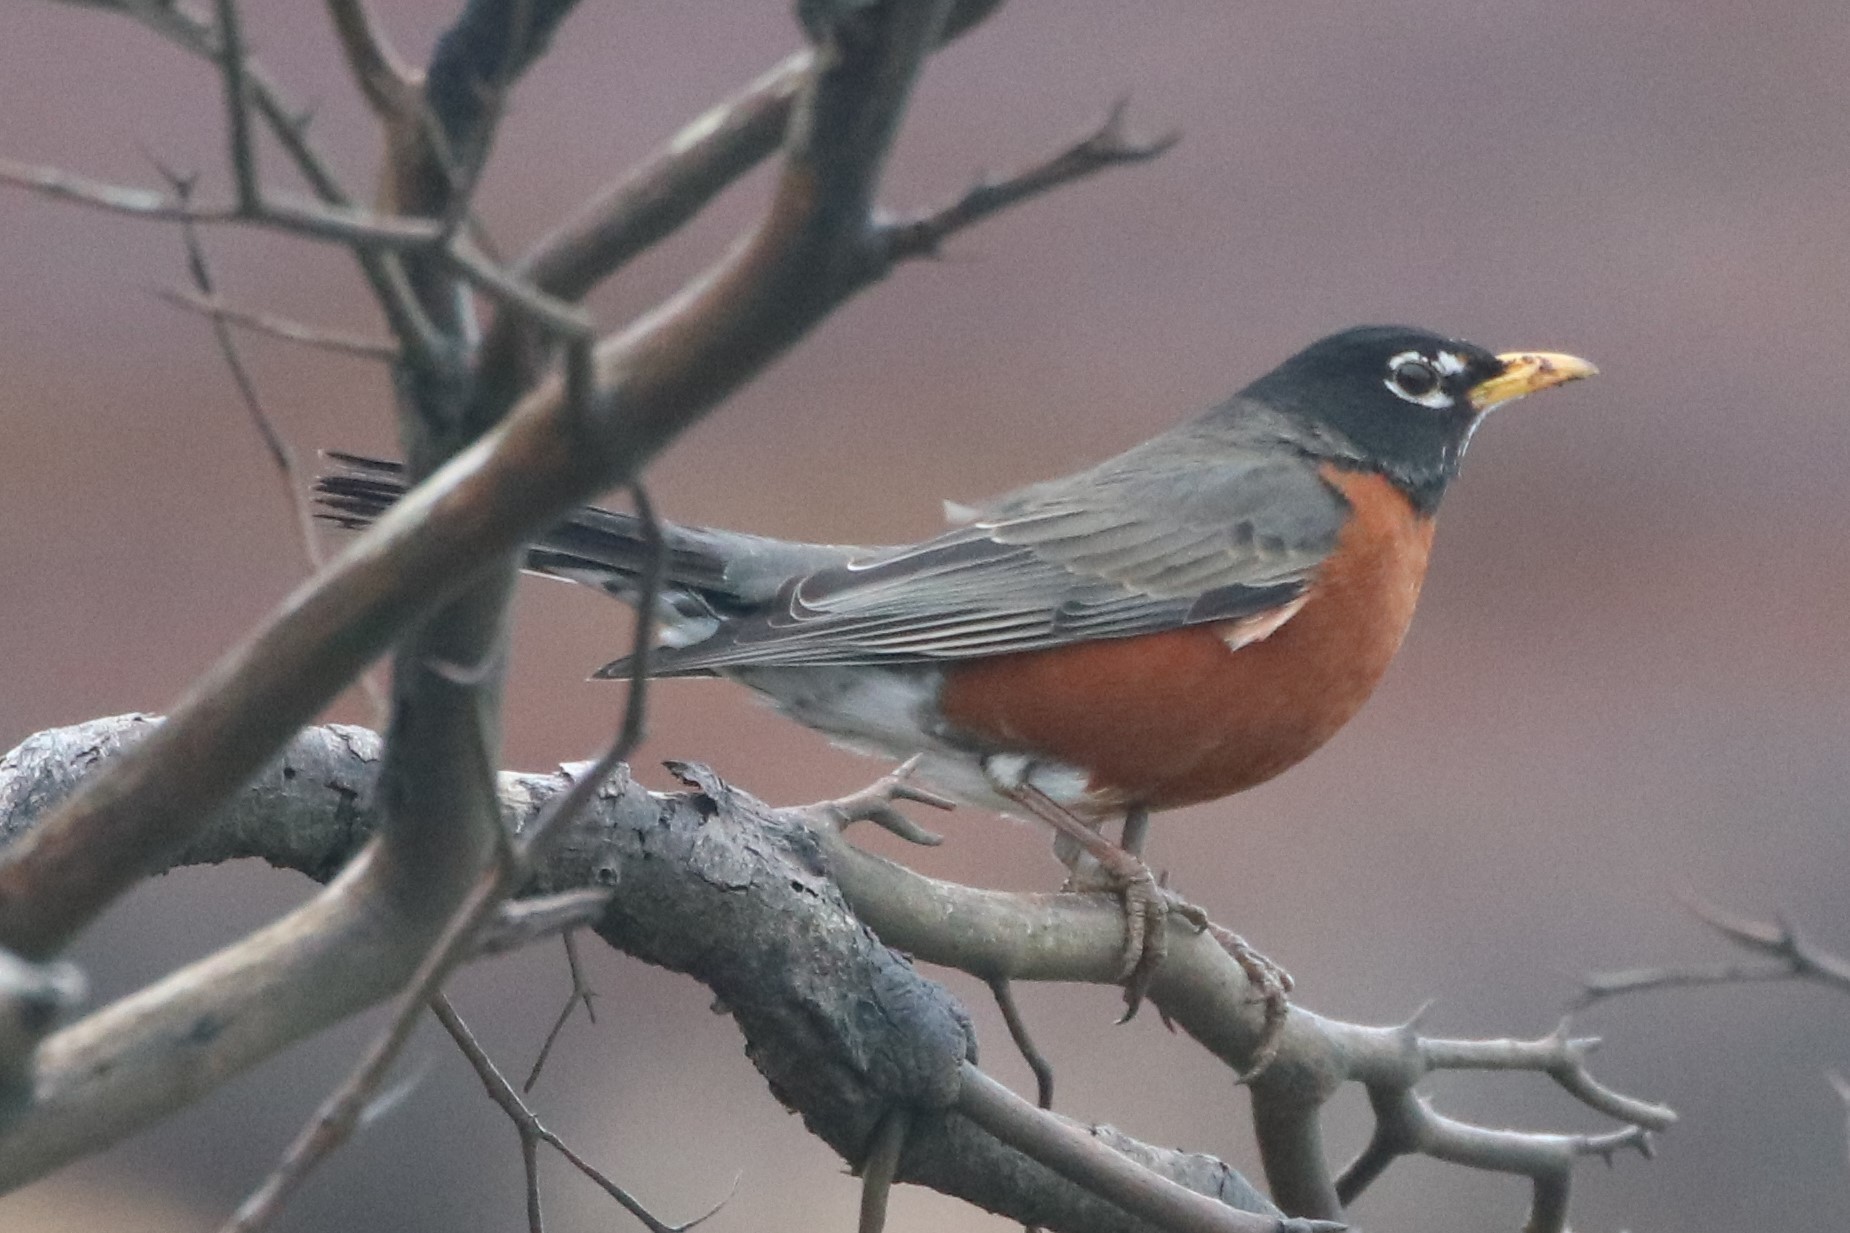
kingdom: Animalia
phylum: Chordata
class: Aves
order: Passeriformes
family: Turdidae
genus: Turdus
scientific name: Turdus migratorius
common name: American robin
